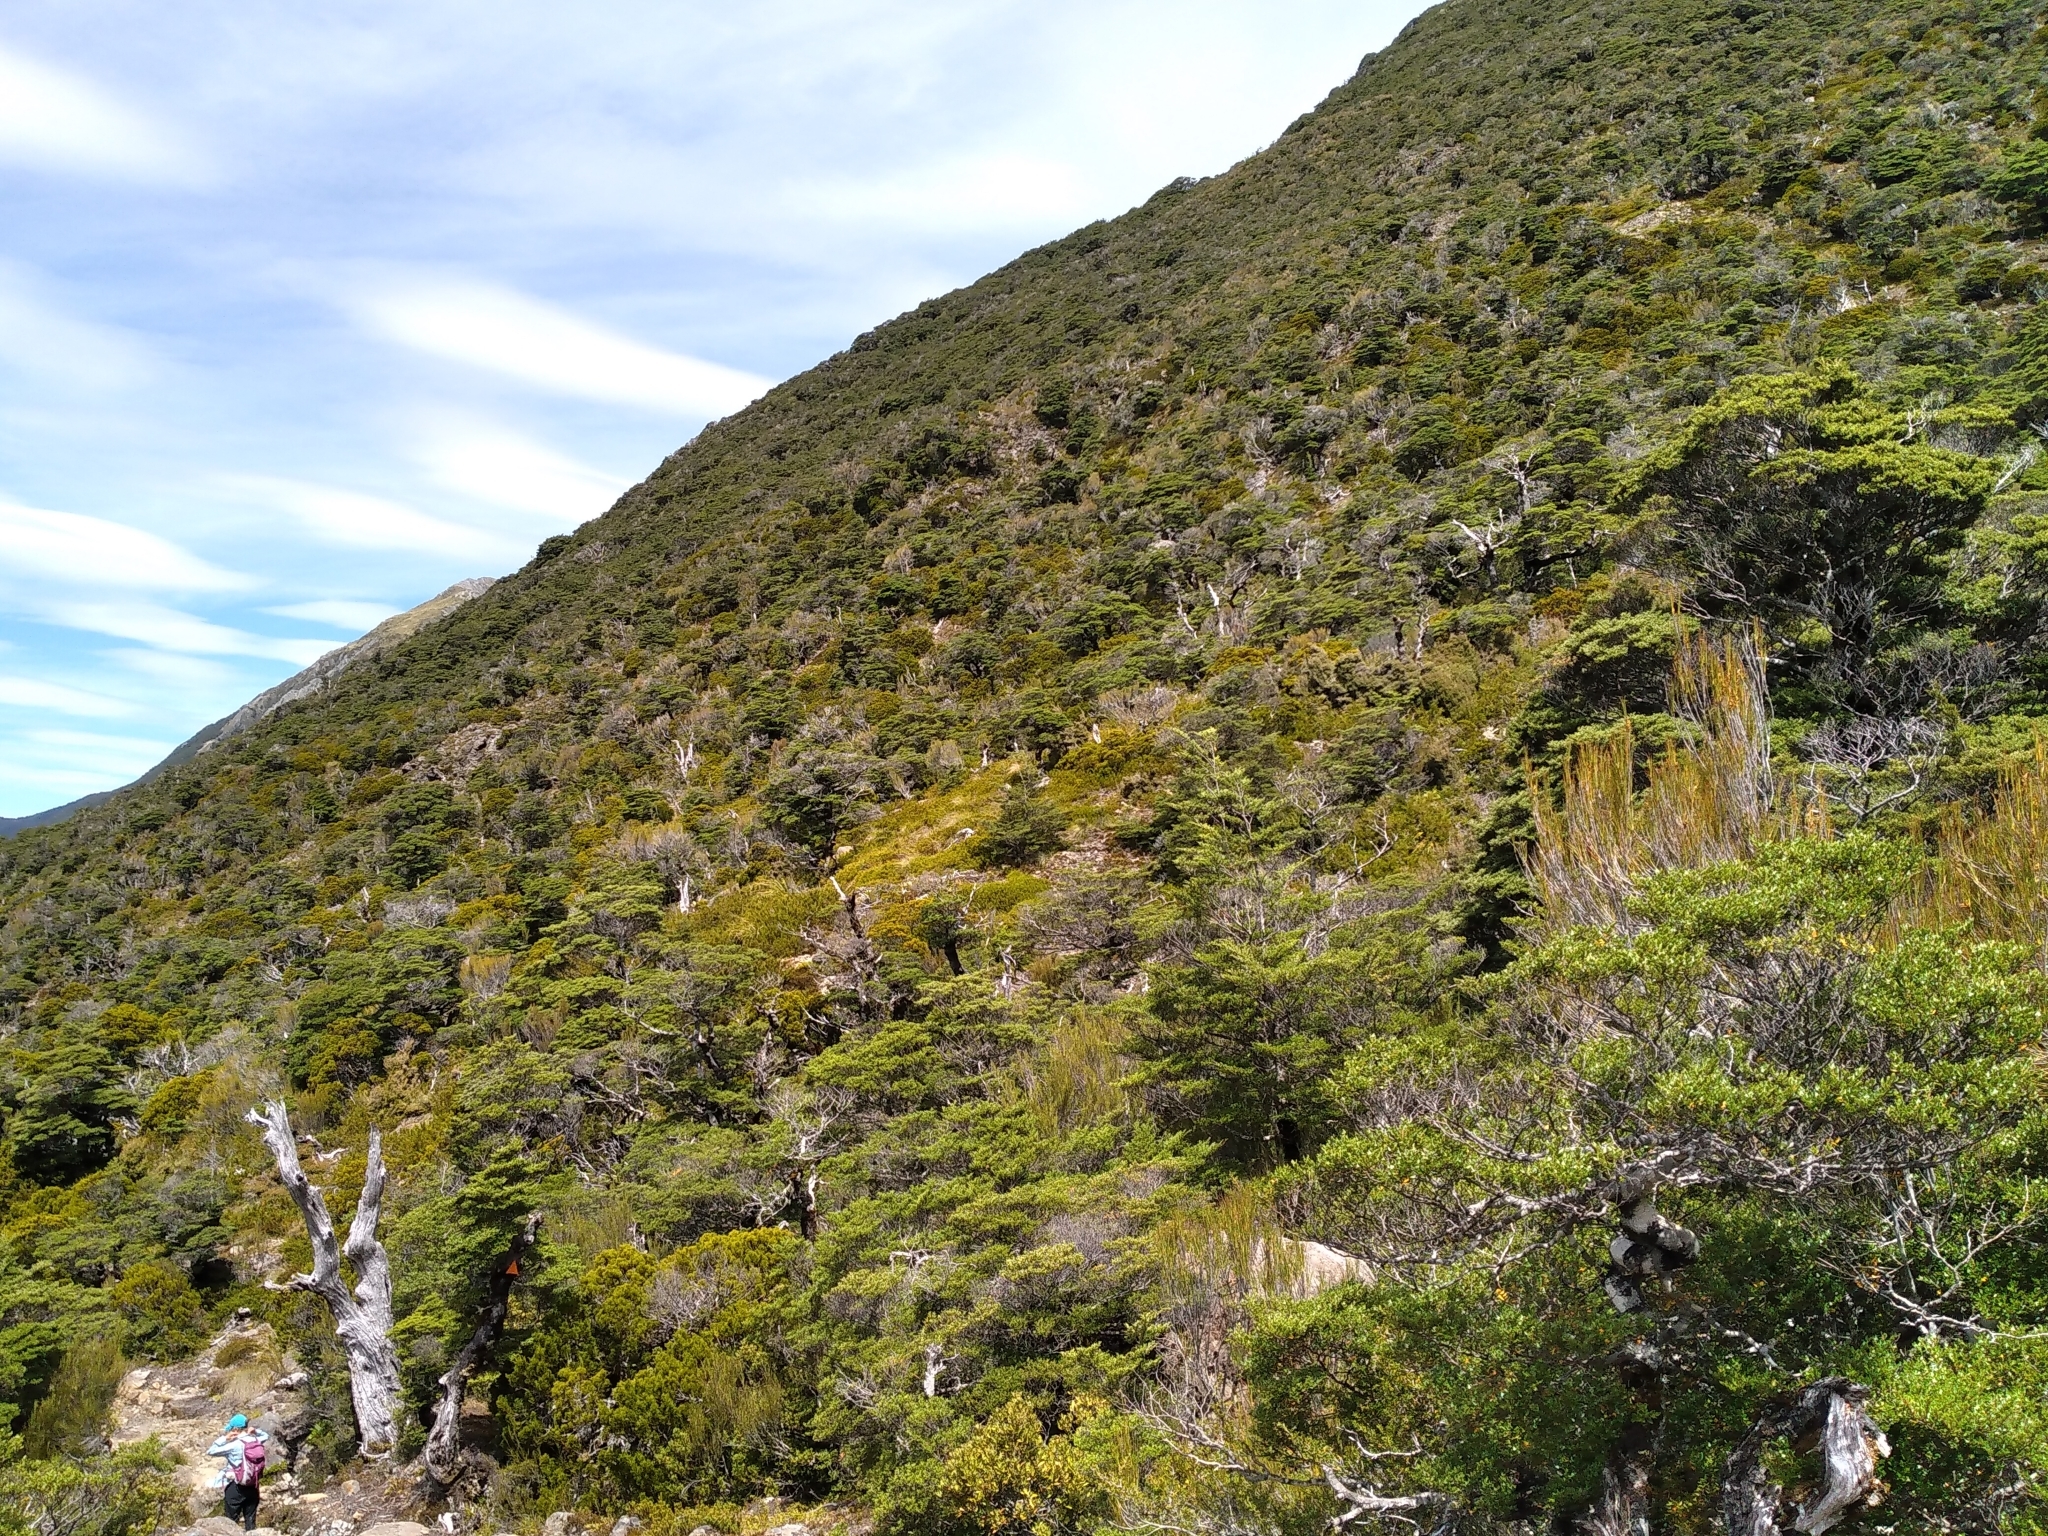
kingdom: Plantae
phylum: Tracheophyta
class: Pinopsida
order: Pinales
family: Podocarpaceae
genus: Halocarpus
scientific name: Halocarpus bidwillii
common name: Bog pine
